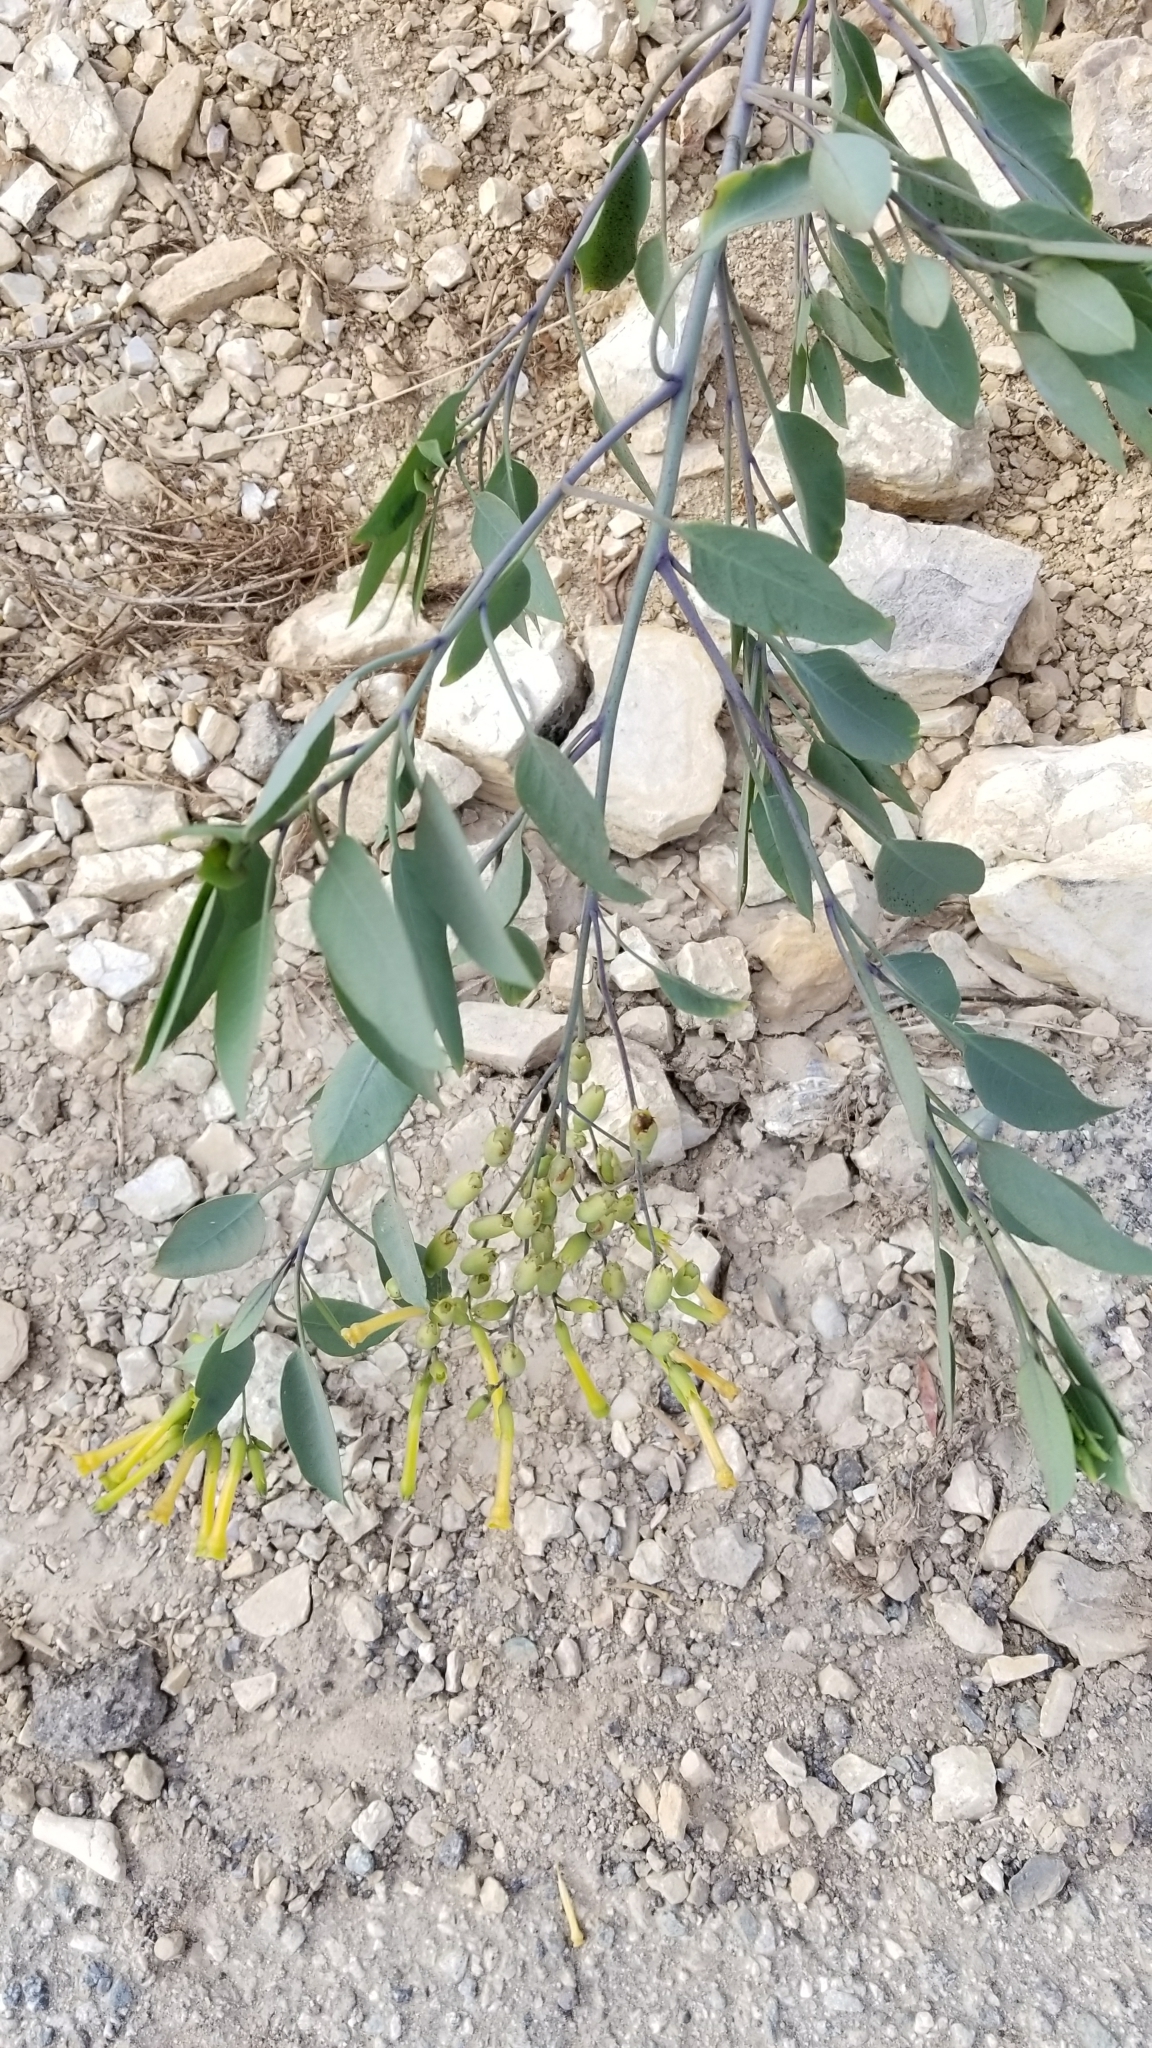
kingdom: Plantae
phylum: Tracheophyta
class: Magnoliopsida
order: Solanales
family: Solanaceae
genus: Nicotiana
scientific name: Nicotiana glauca
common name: Tree tobacco
